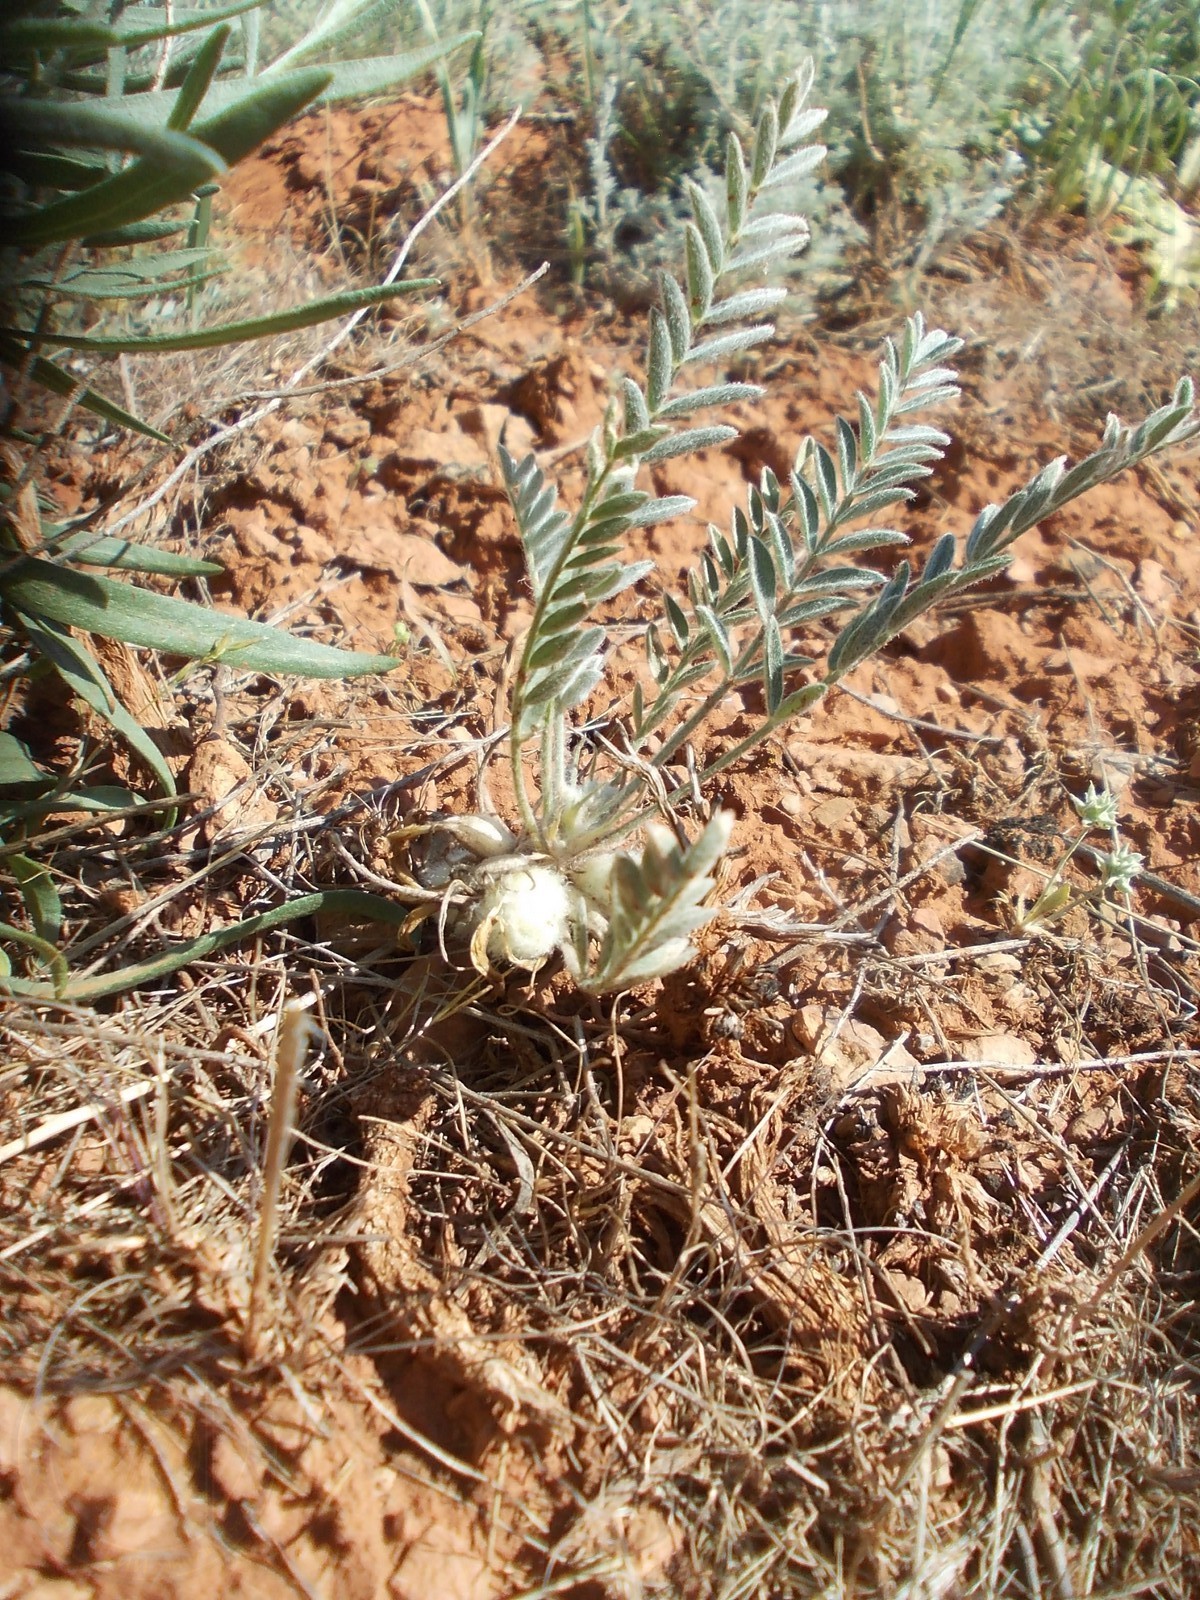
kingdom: Plantae
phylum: Tracheophyta
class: Magnoliopsida
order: Fabales
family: Fabaceae
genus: Astragalus
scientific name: Astragalus testiculatus
